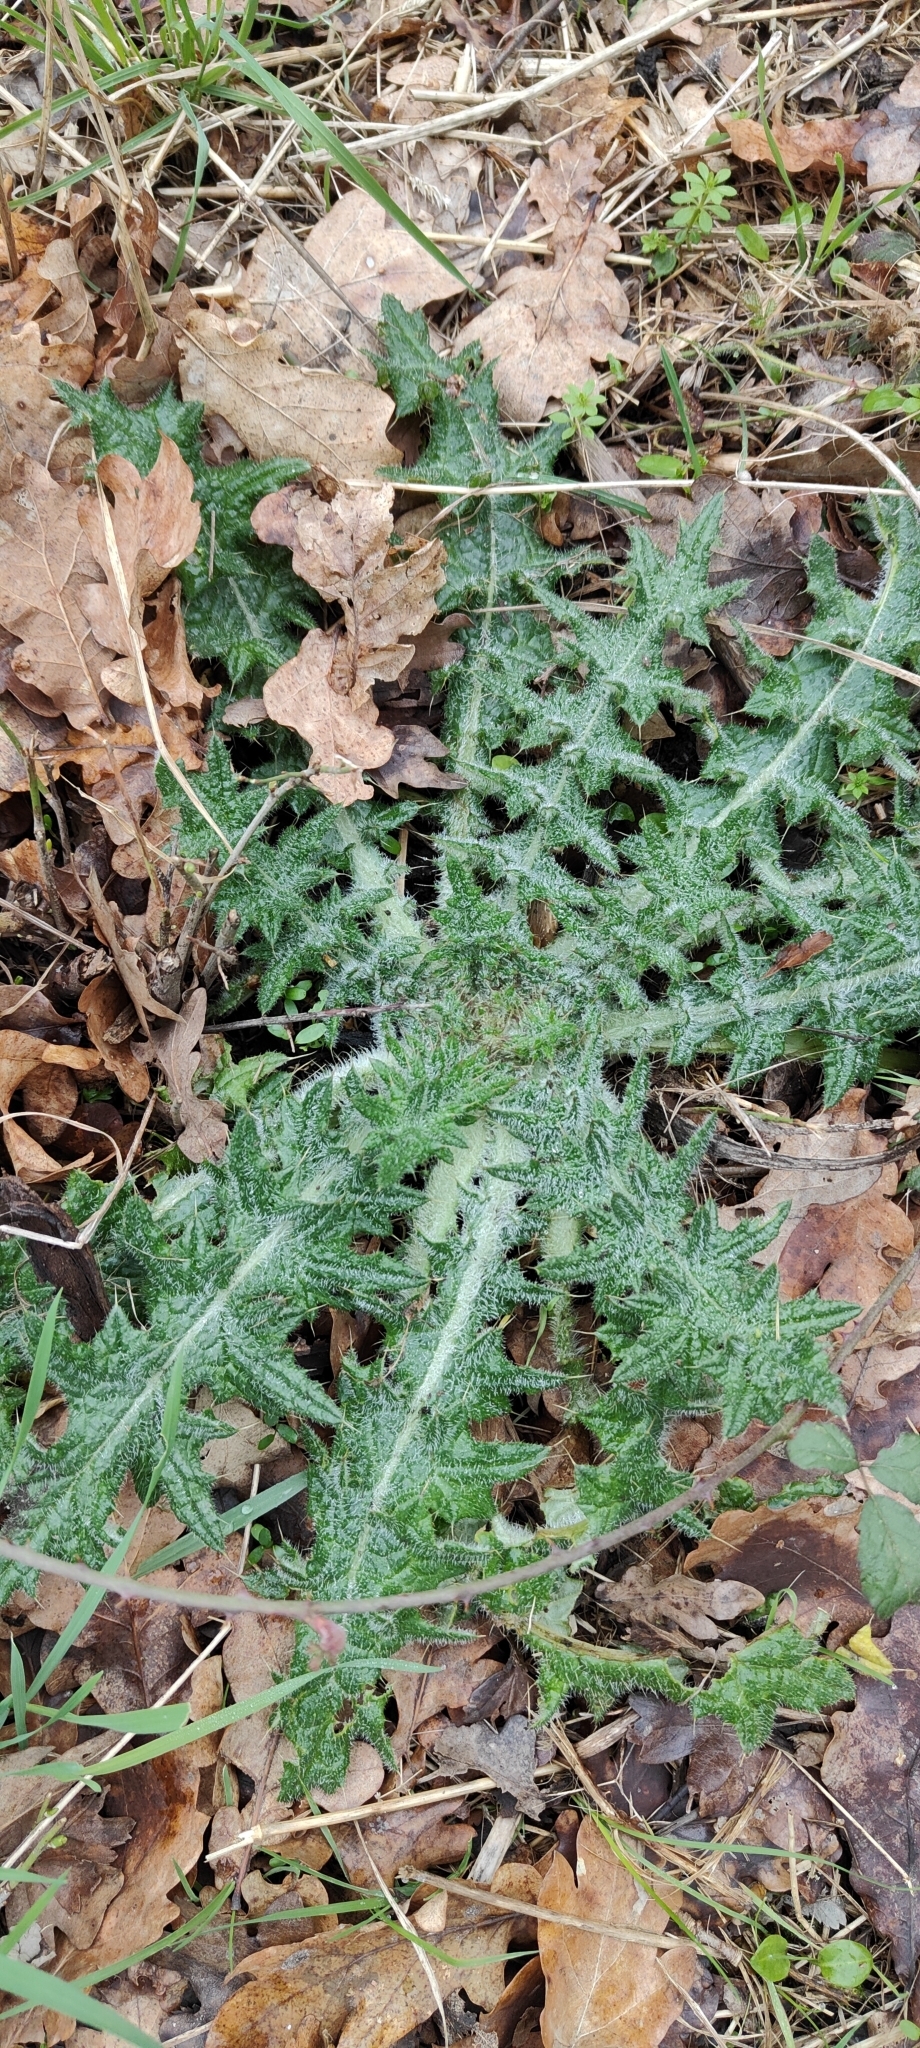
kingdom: Plantae
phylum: Tracheophyta
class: Magnoliopsida
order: Asterales
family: Asteraceae
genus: Cirsium
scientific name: Cirsium vulgare
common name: Bull thistle
